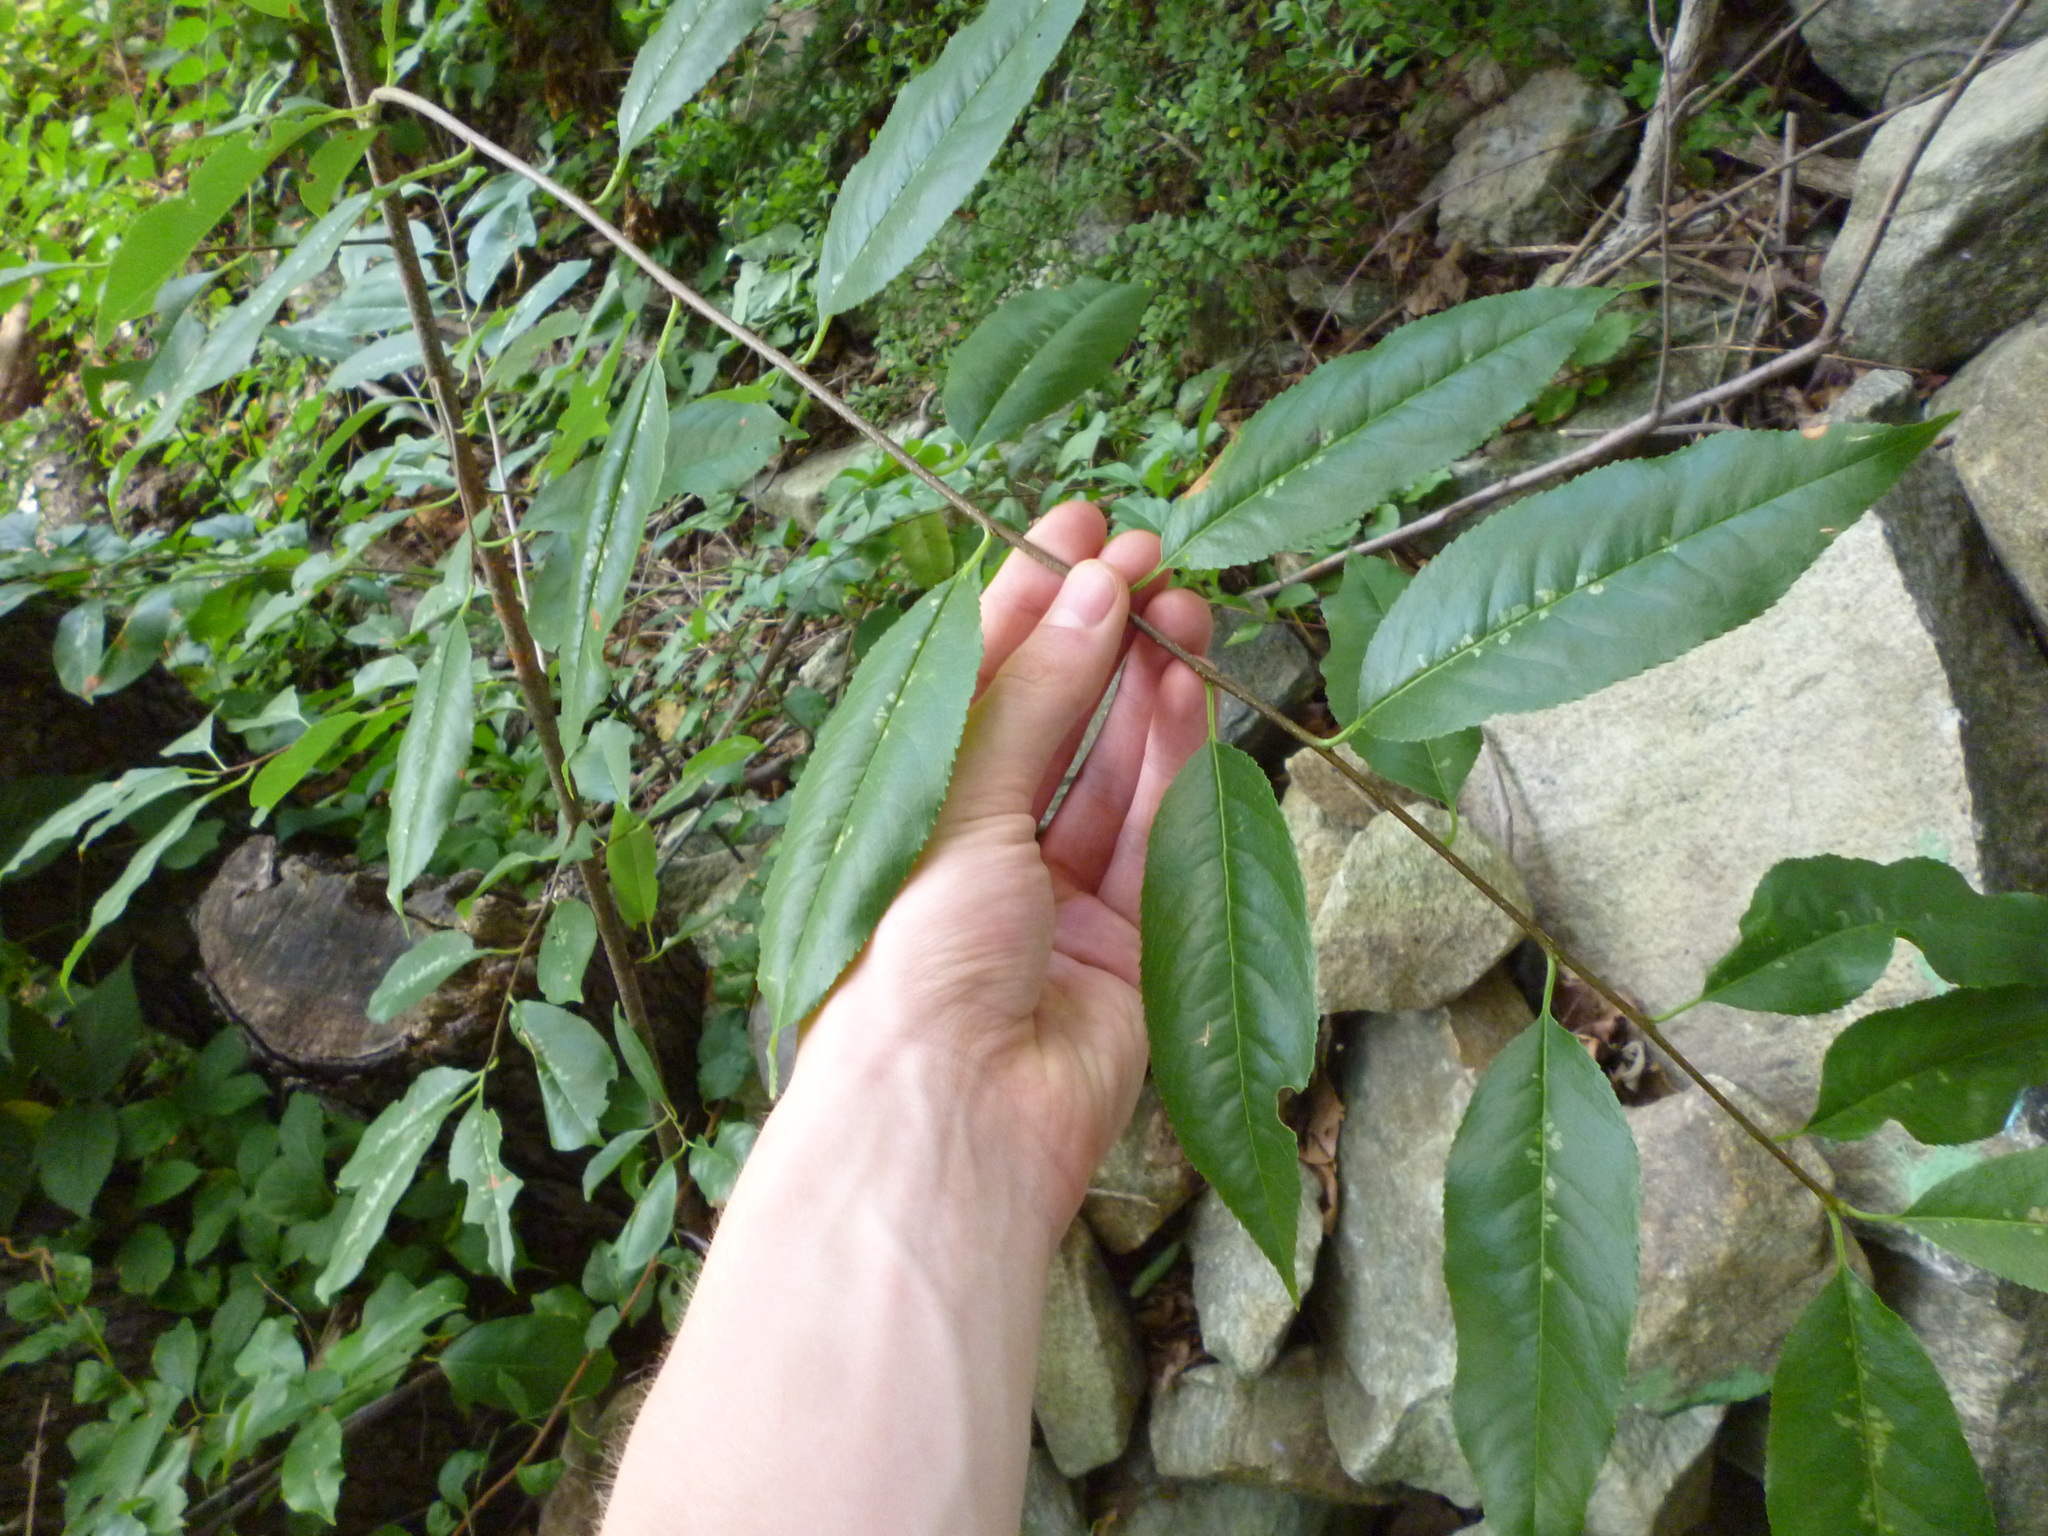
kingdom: Plantae
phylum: Tracheophyta
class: Magnoliopsida
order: Rosales
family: Rosaceae
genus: Prunus
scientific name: Prunus serotina
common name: Black cherry
